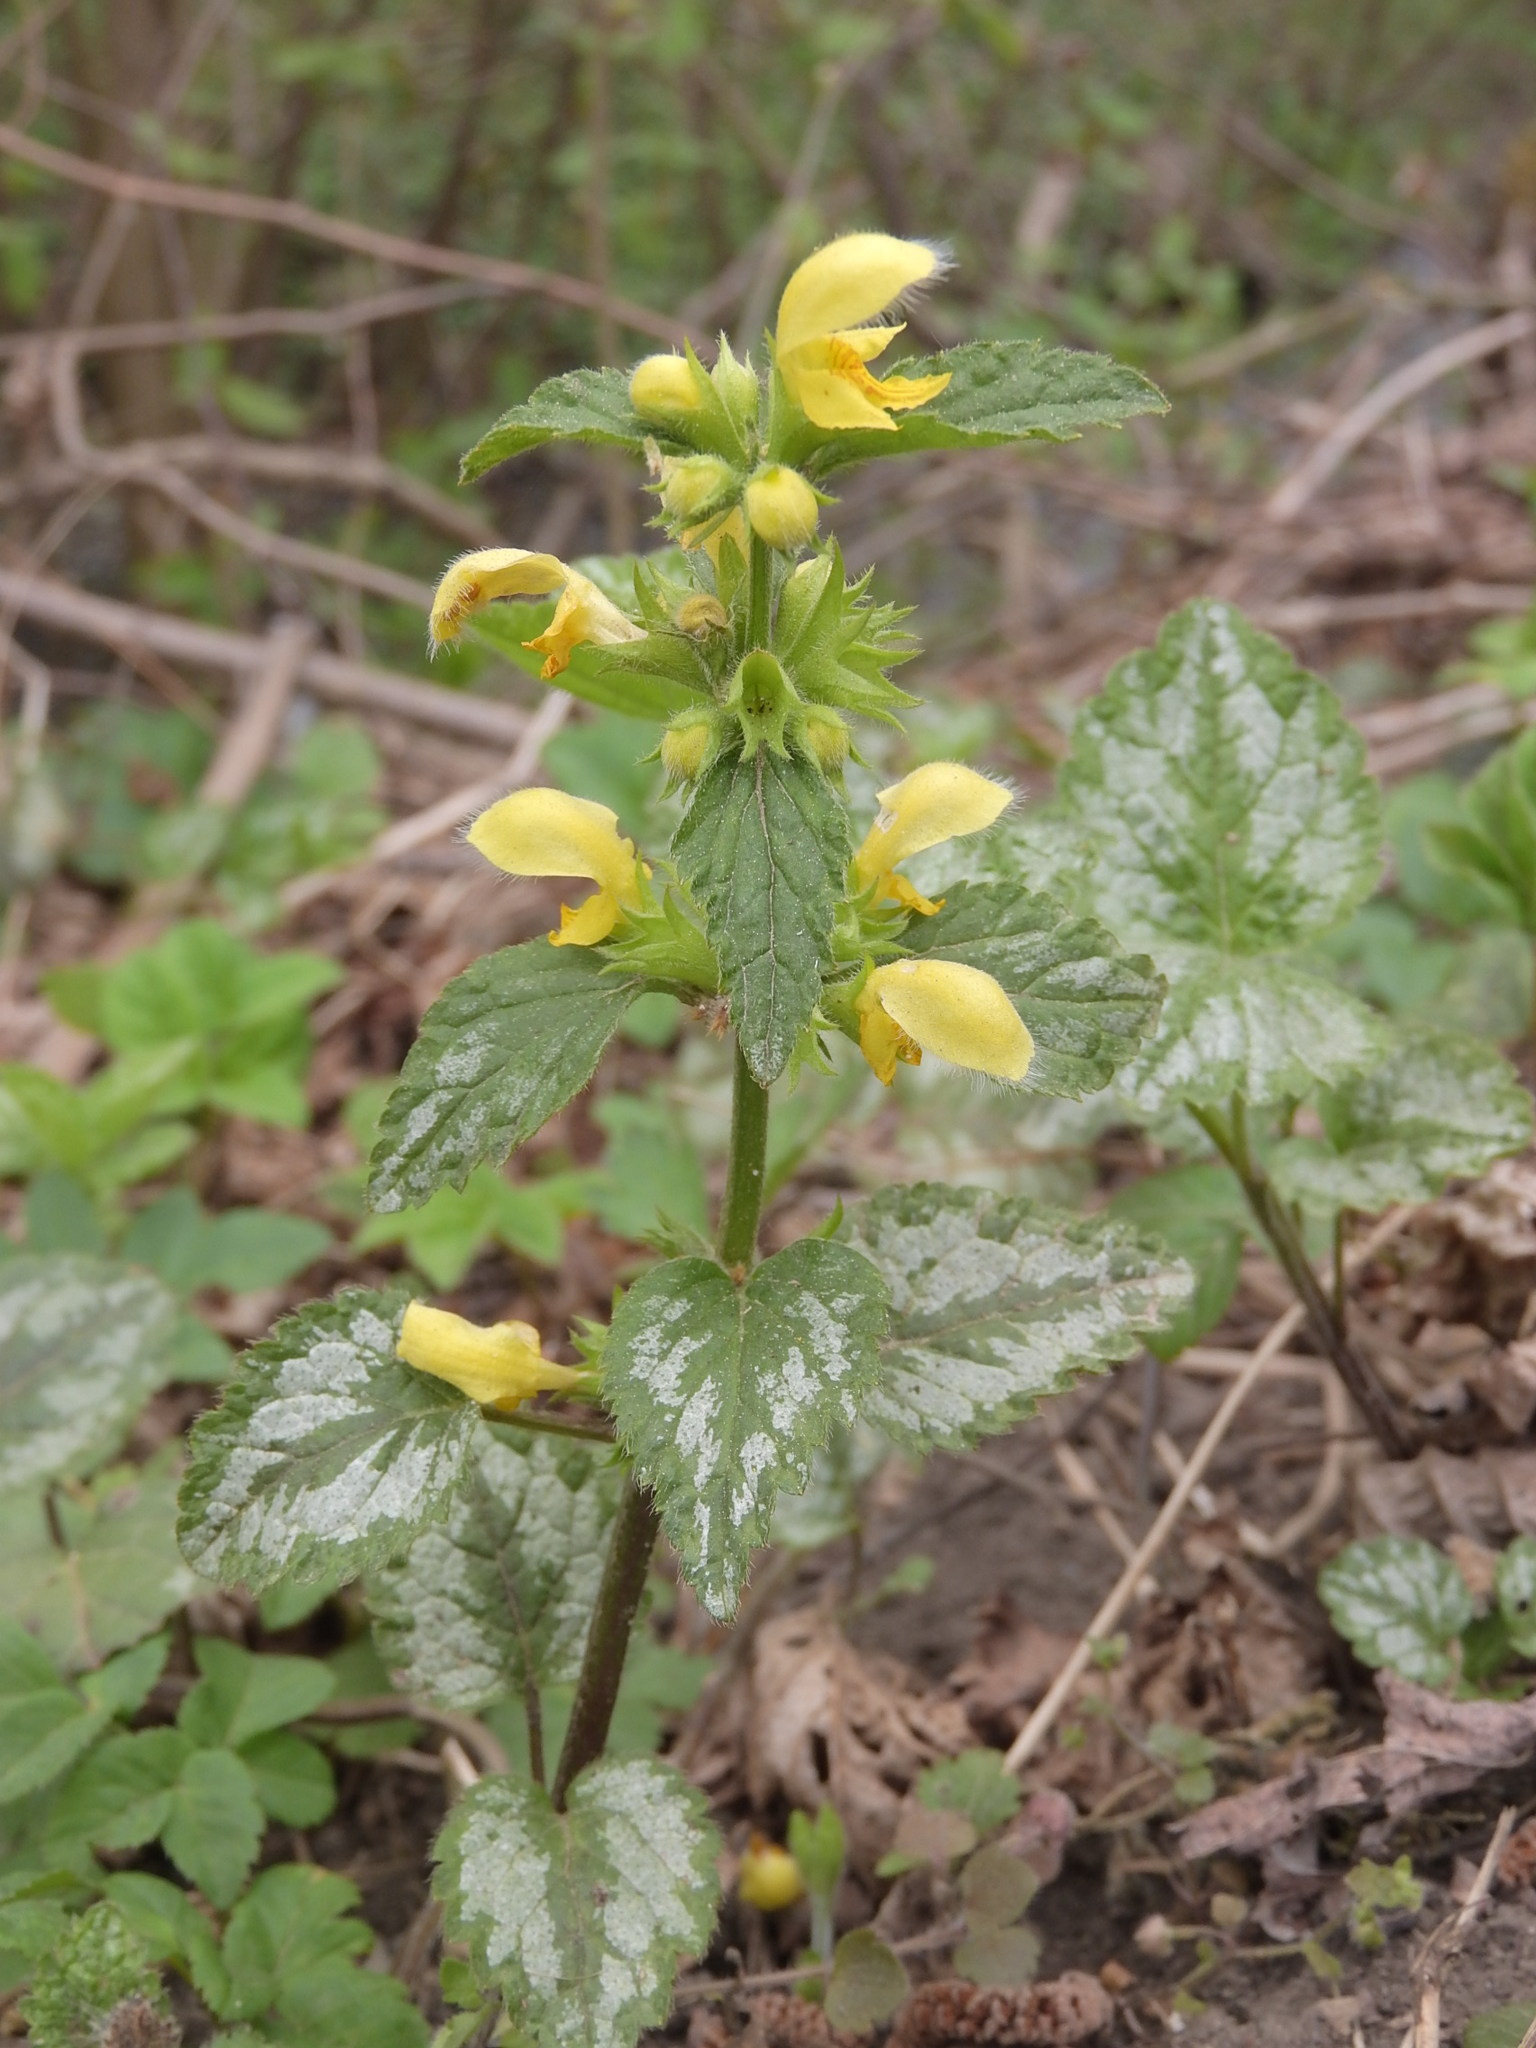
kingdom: Plantae
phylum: Tracheophyta
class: Magnoliopsida
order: Lamiales
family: Lamiaceae
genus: Lamium
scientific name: Lamium galeobdolon
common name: Yellow archangel
